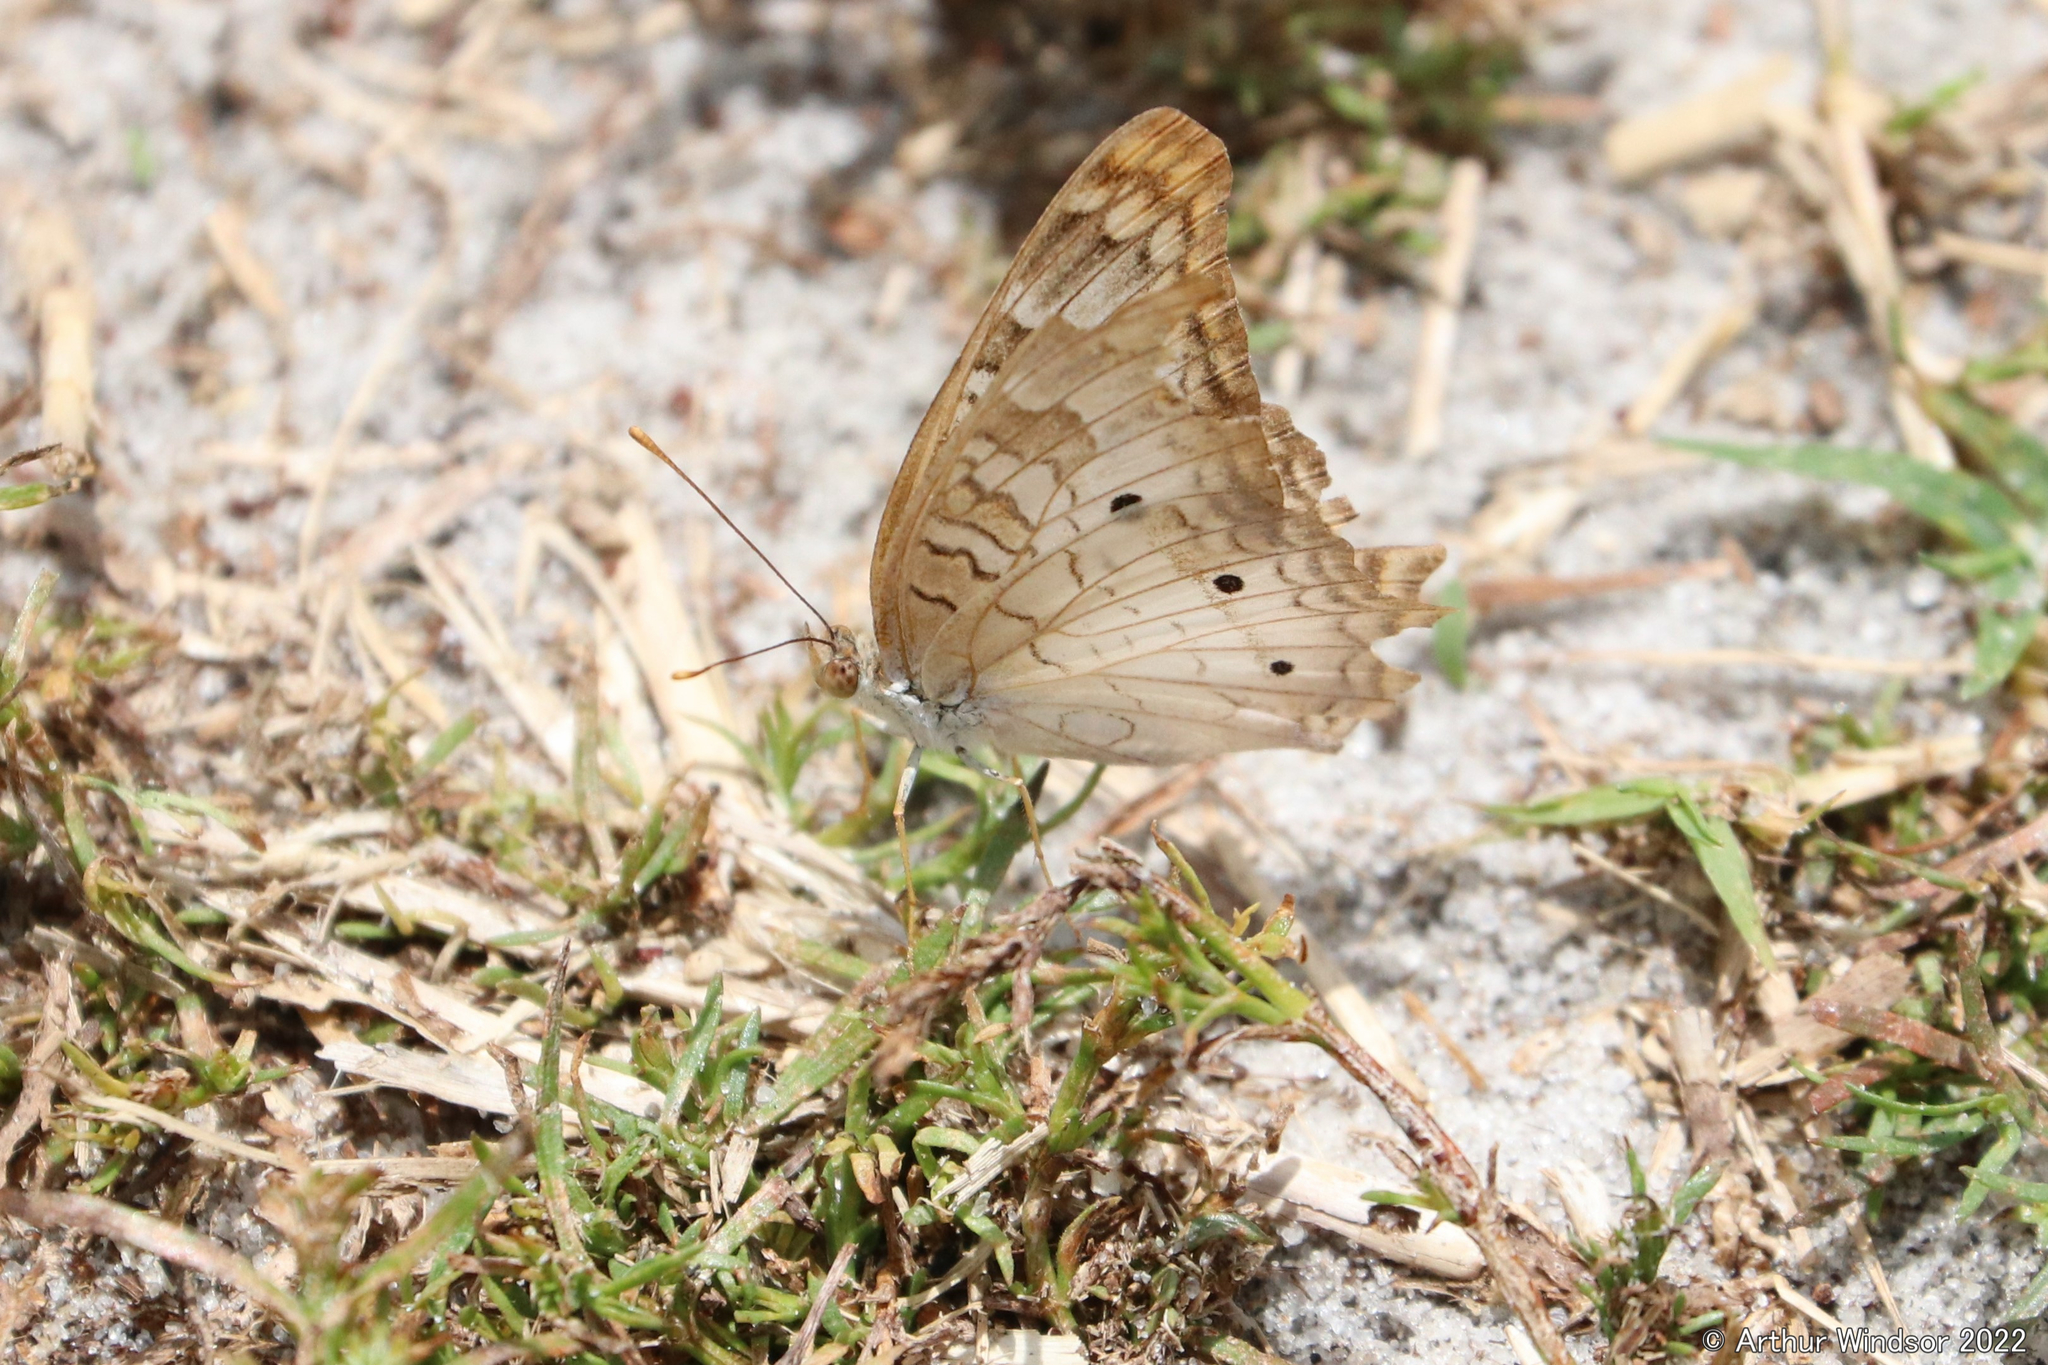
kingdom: Animalia
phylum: Arthropoda
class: Insecta
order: Lepidoptera
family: Nymphalidae
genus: Anartia
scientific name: Anartia jatrophae
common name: White peacock
